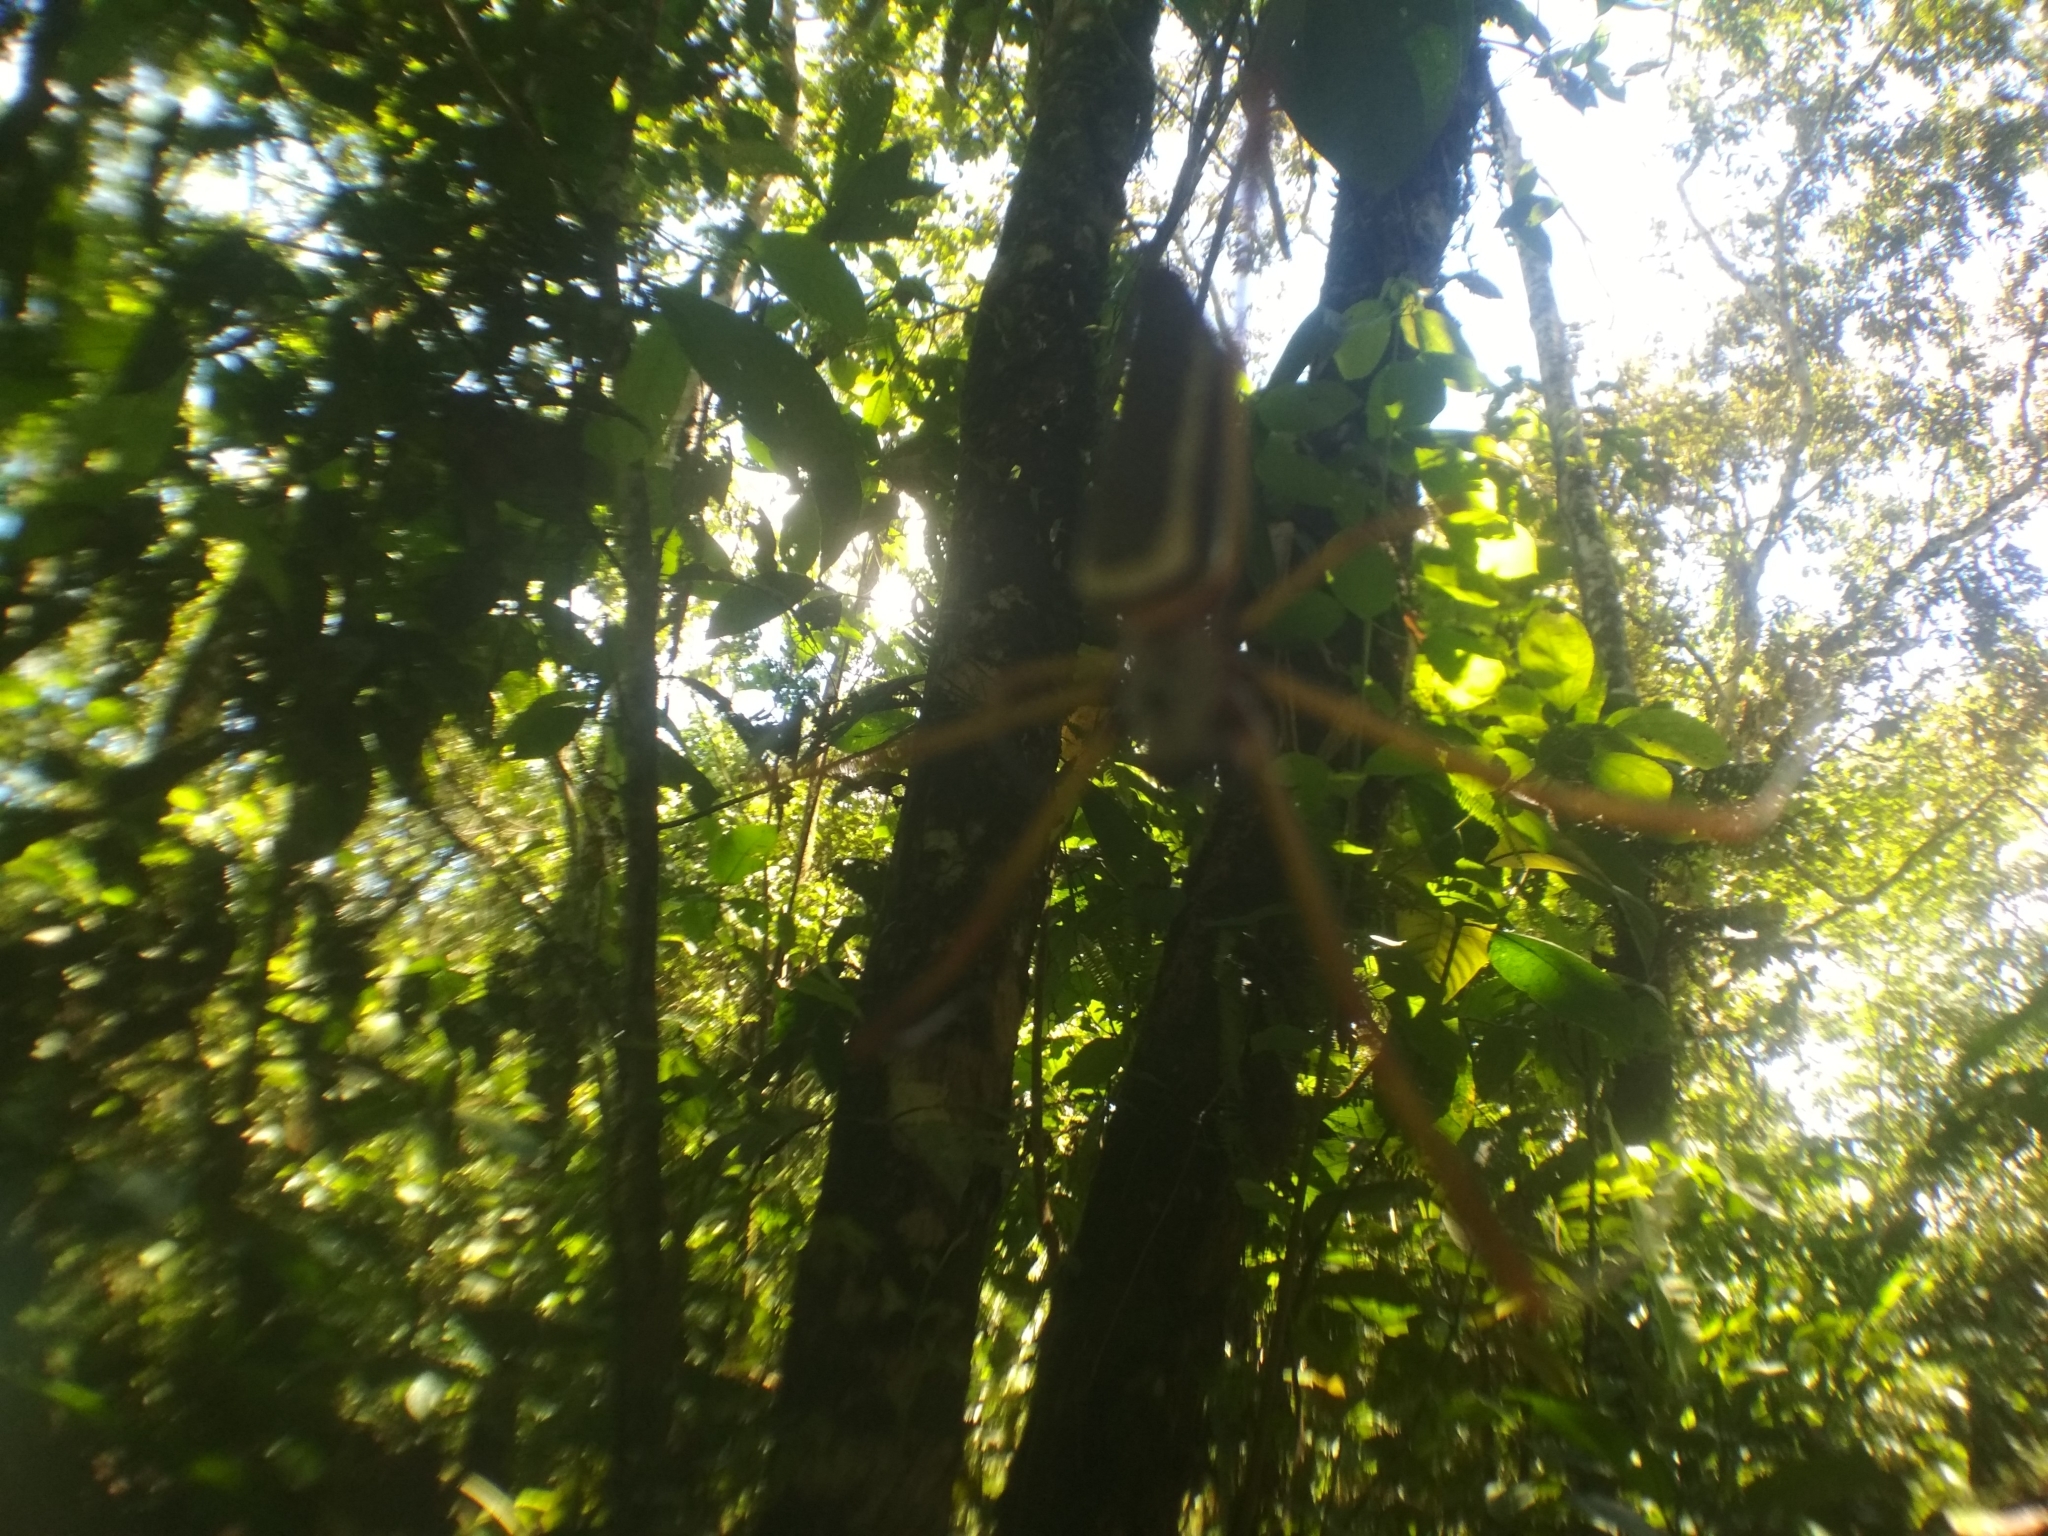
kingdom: Animalia
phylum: Arthropoda
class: Arachnida
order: Araneae
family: Araneidae
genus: Trichonephila
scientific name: Trichonephila clavipes
